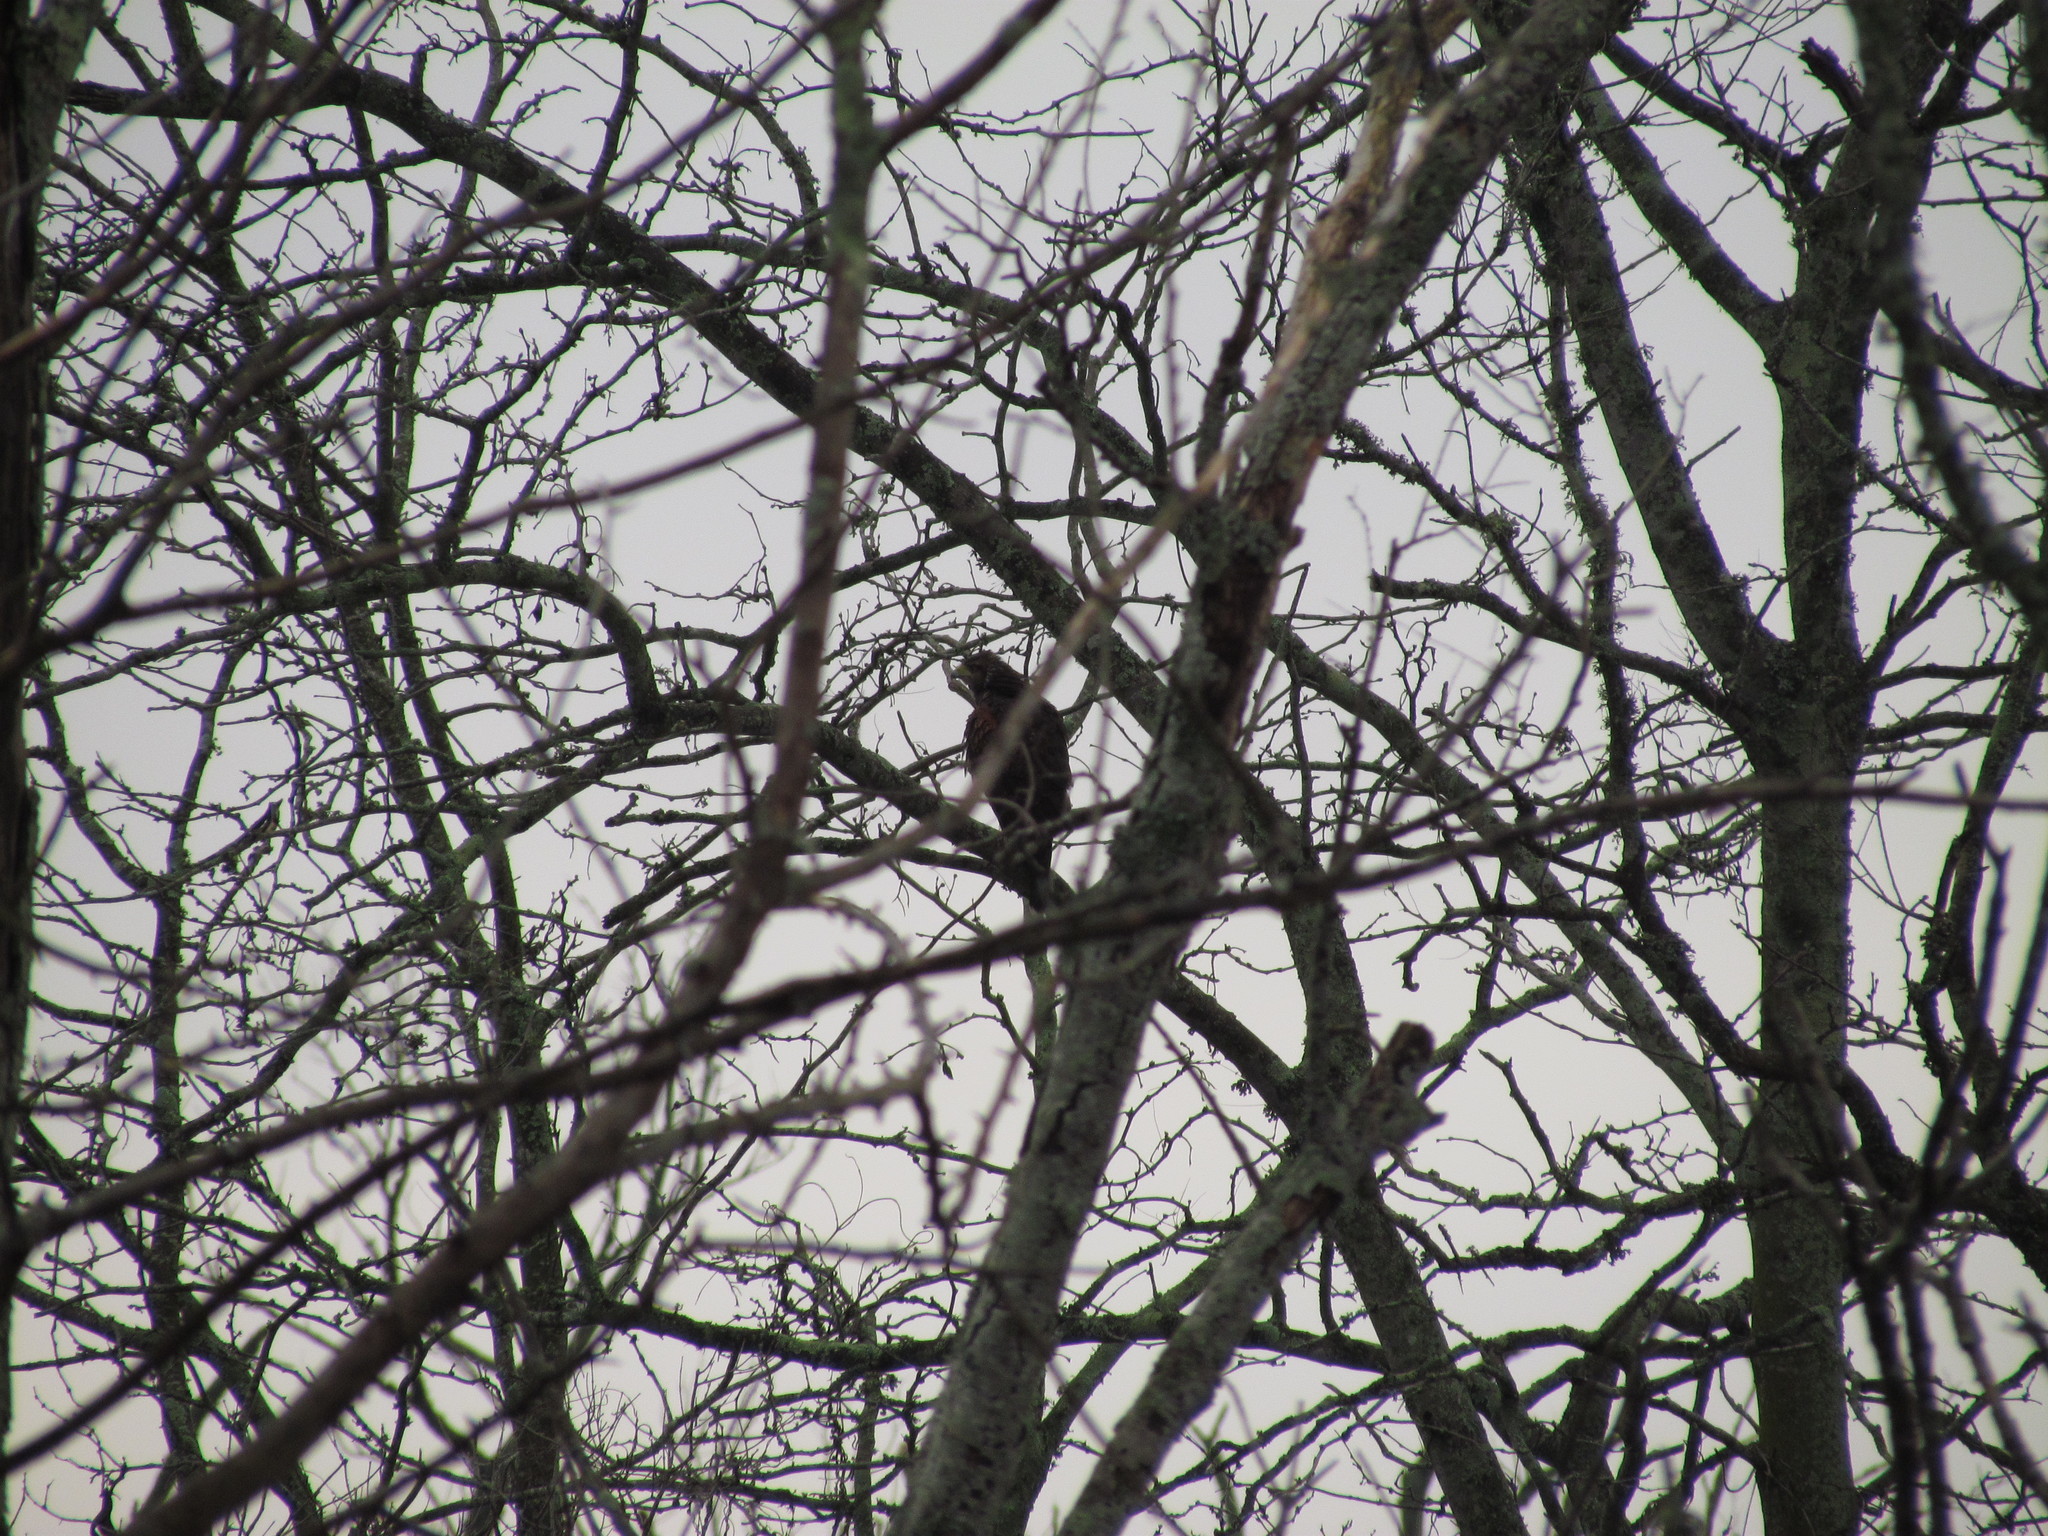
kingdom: Animalia
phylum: Chordata
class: Aves
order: Accipitriformes
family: Accipitridae
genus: Parabuteo
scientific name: Parabuteo unicinctus
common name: Harris's hawk
